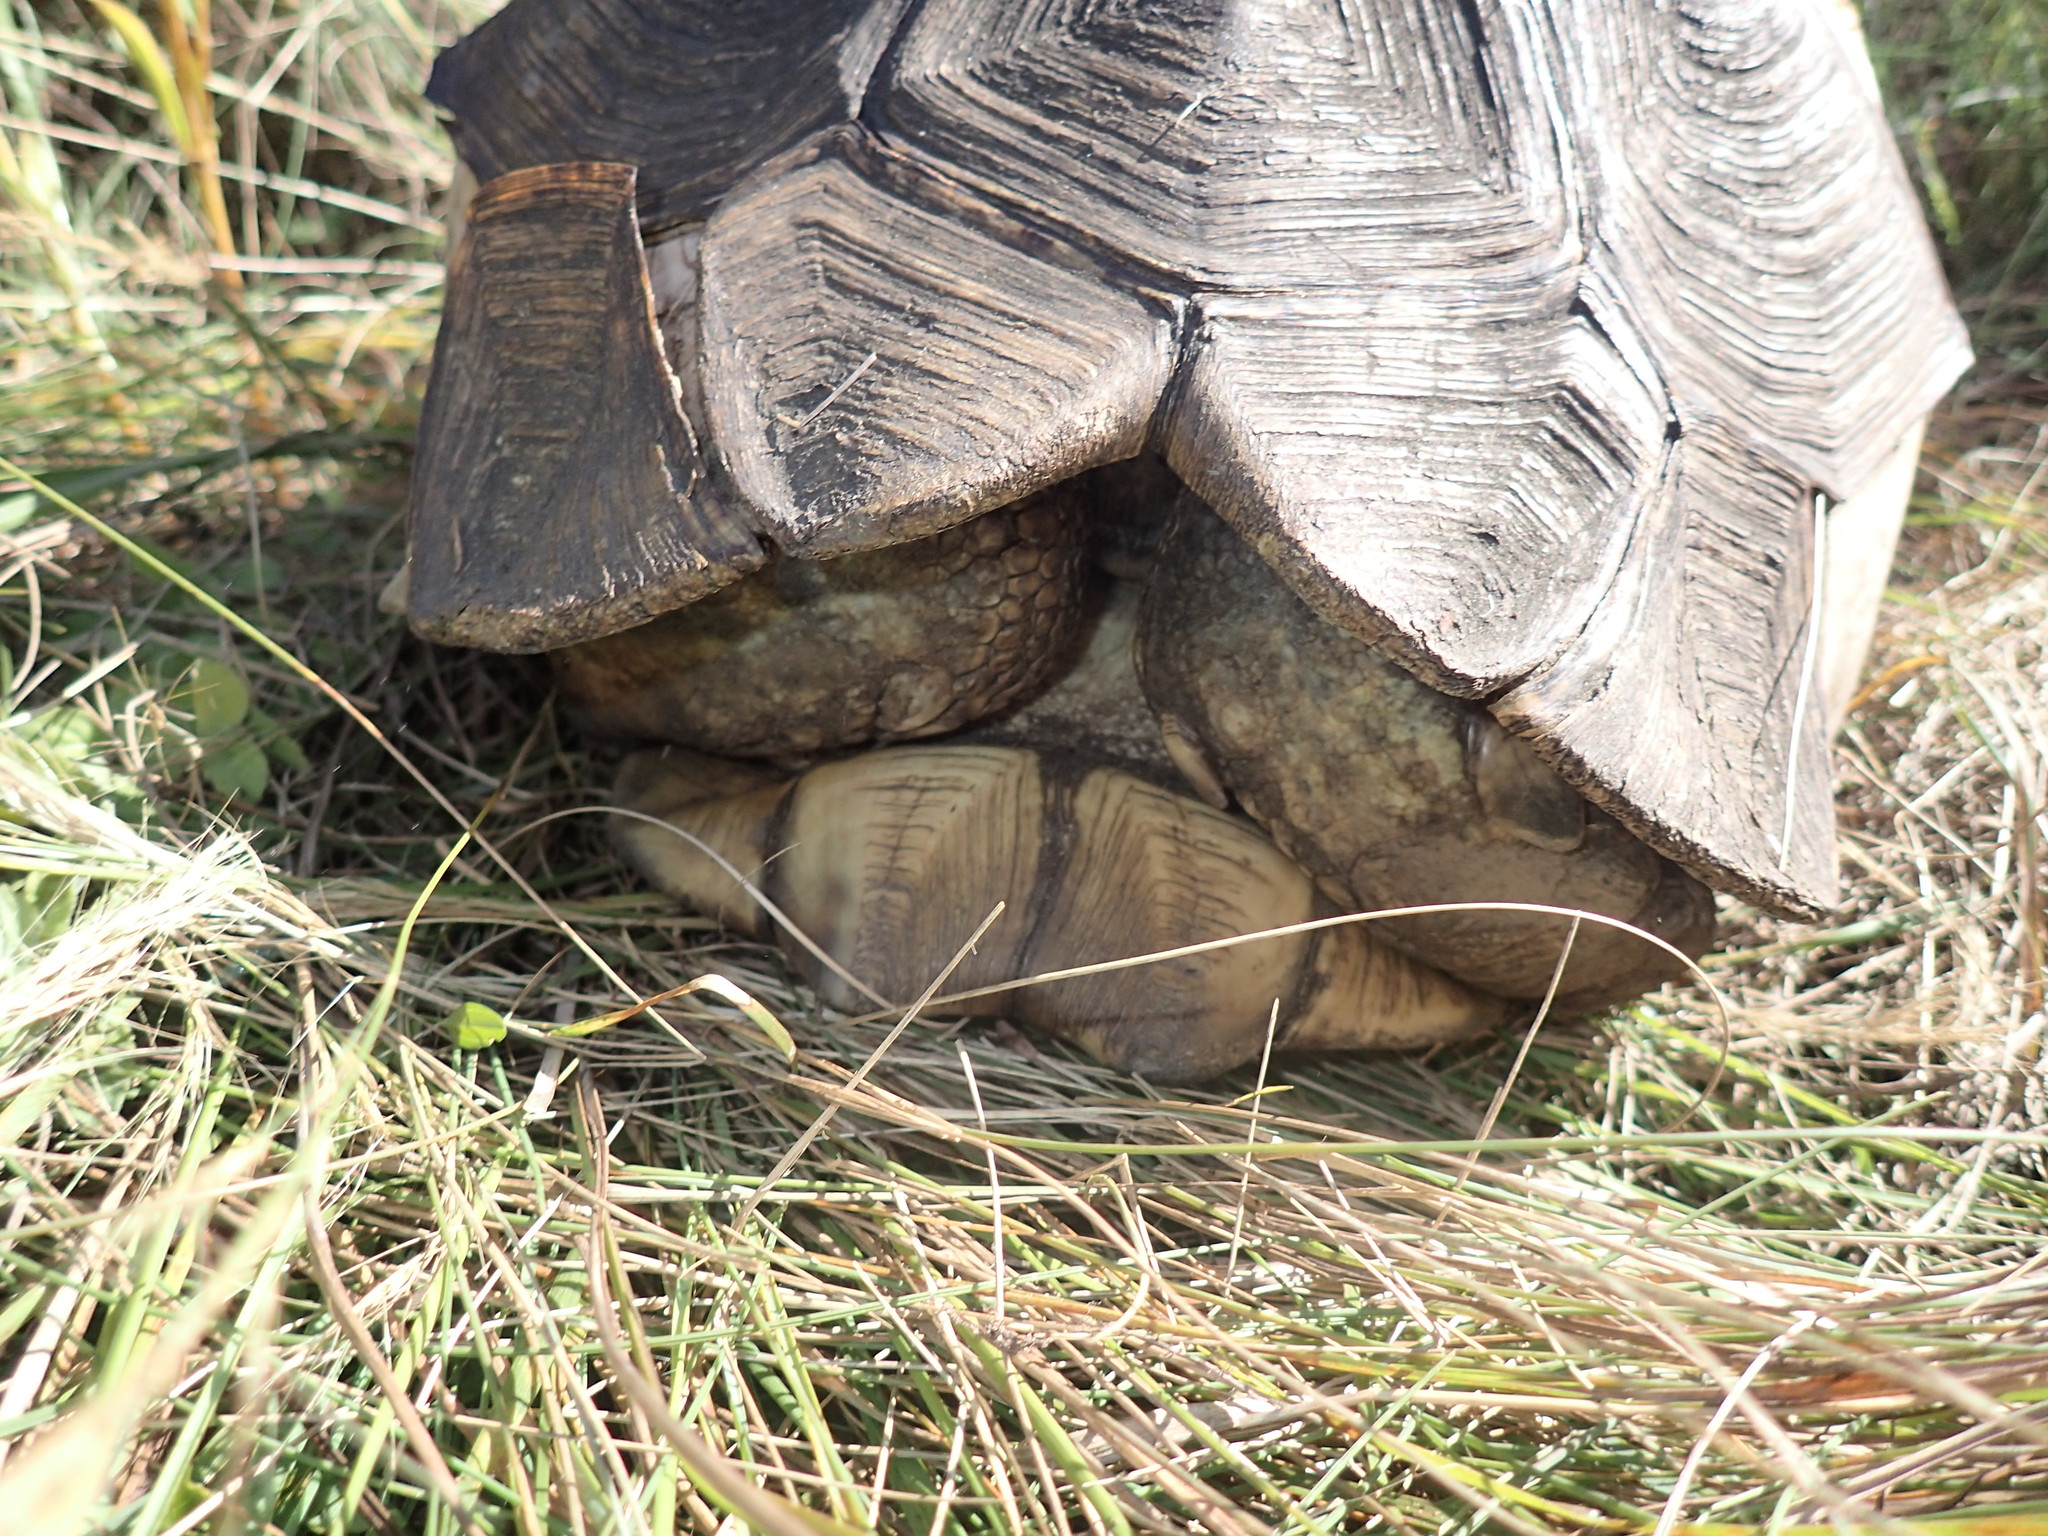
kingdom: Animalia
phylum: Chordata
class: Testudines
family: Testudinidae
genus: Stigmochelys
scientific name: Stigmochelys pardalis
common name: Leopard tortoise
